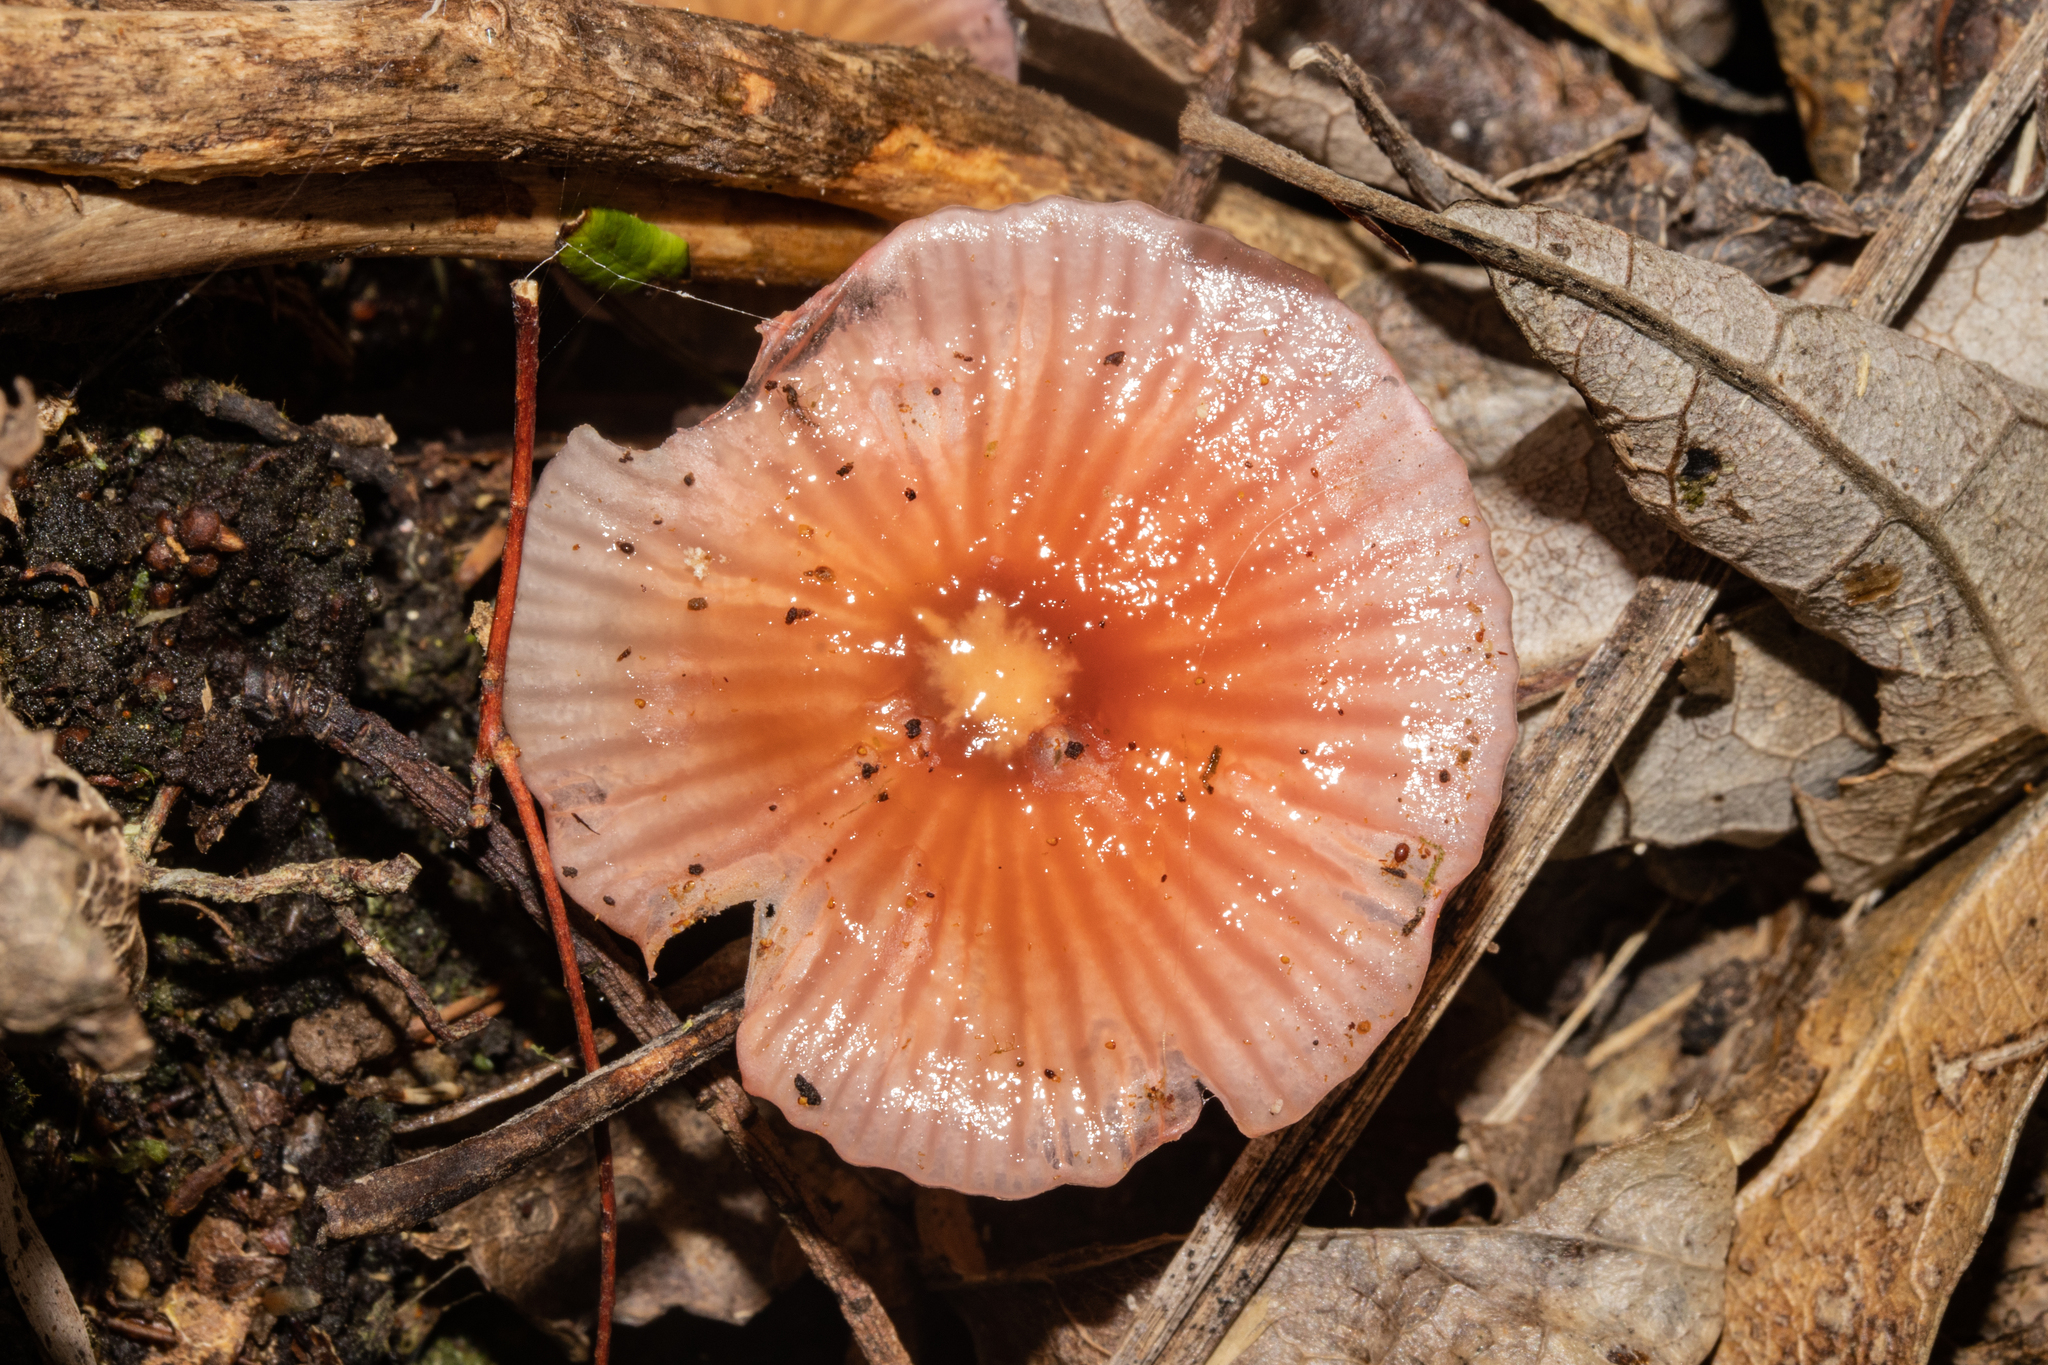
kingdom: Fungi
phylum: Basidiomycota
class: Agaricomycetes
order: Agaricales
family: Hygrophoraceae
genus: Hygrocybe
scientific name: Hygrocybe viscaurantia
